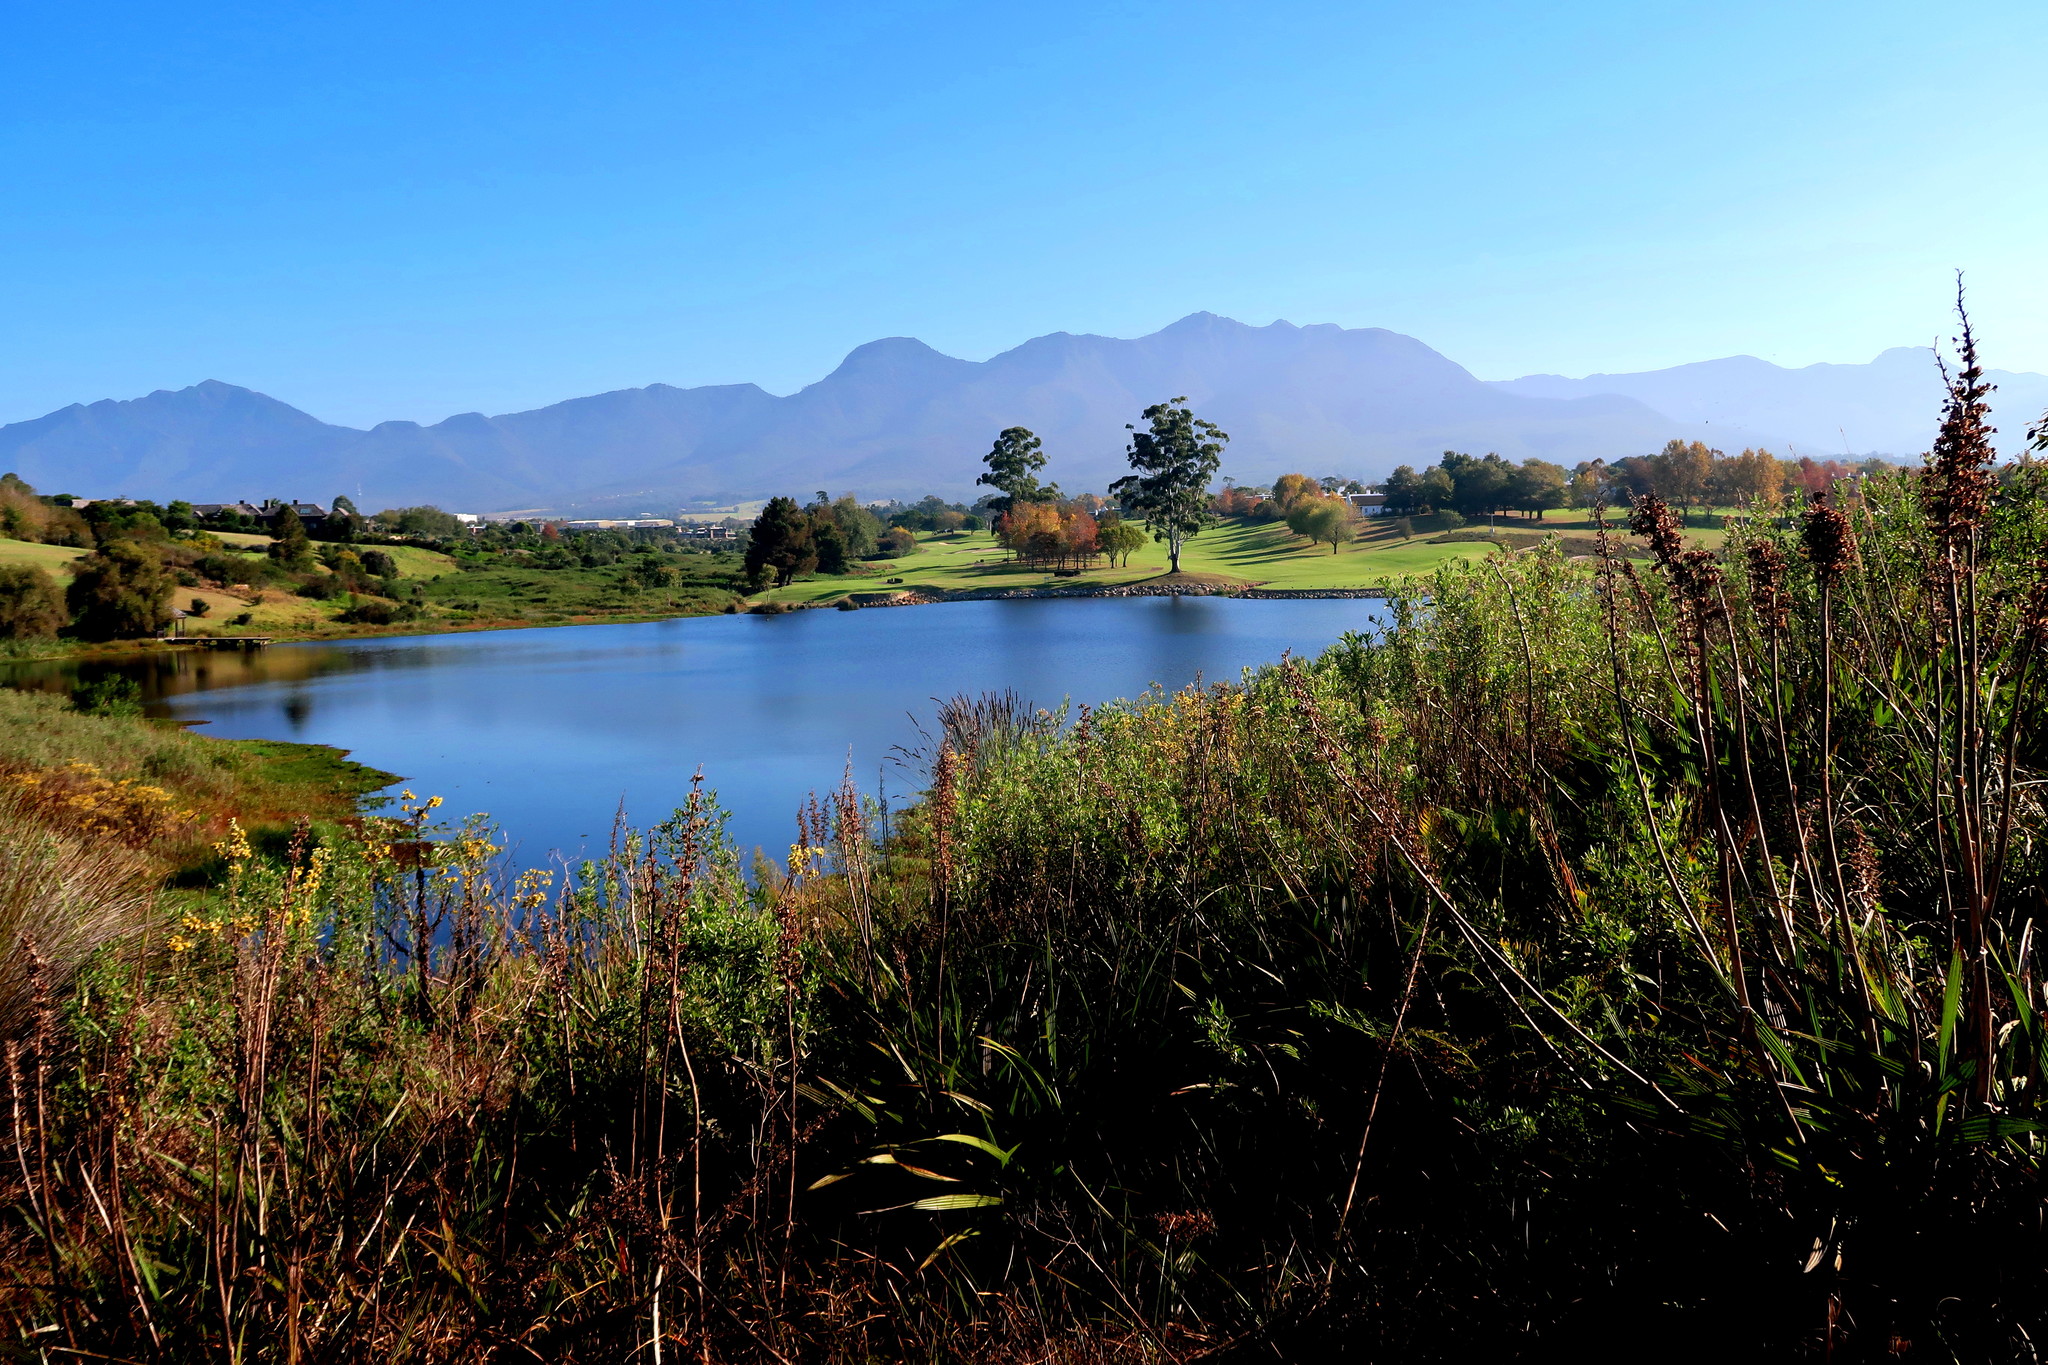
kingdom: Plantae
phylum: Tracheophyta
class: Magnoliopsida
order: Asterales
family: Asteraceae
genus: Helichrysum
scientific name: Helichrysum foetidum
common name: Stinking everlasting
